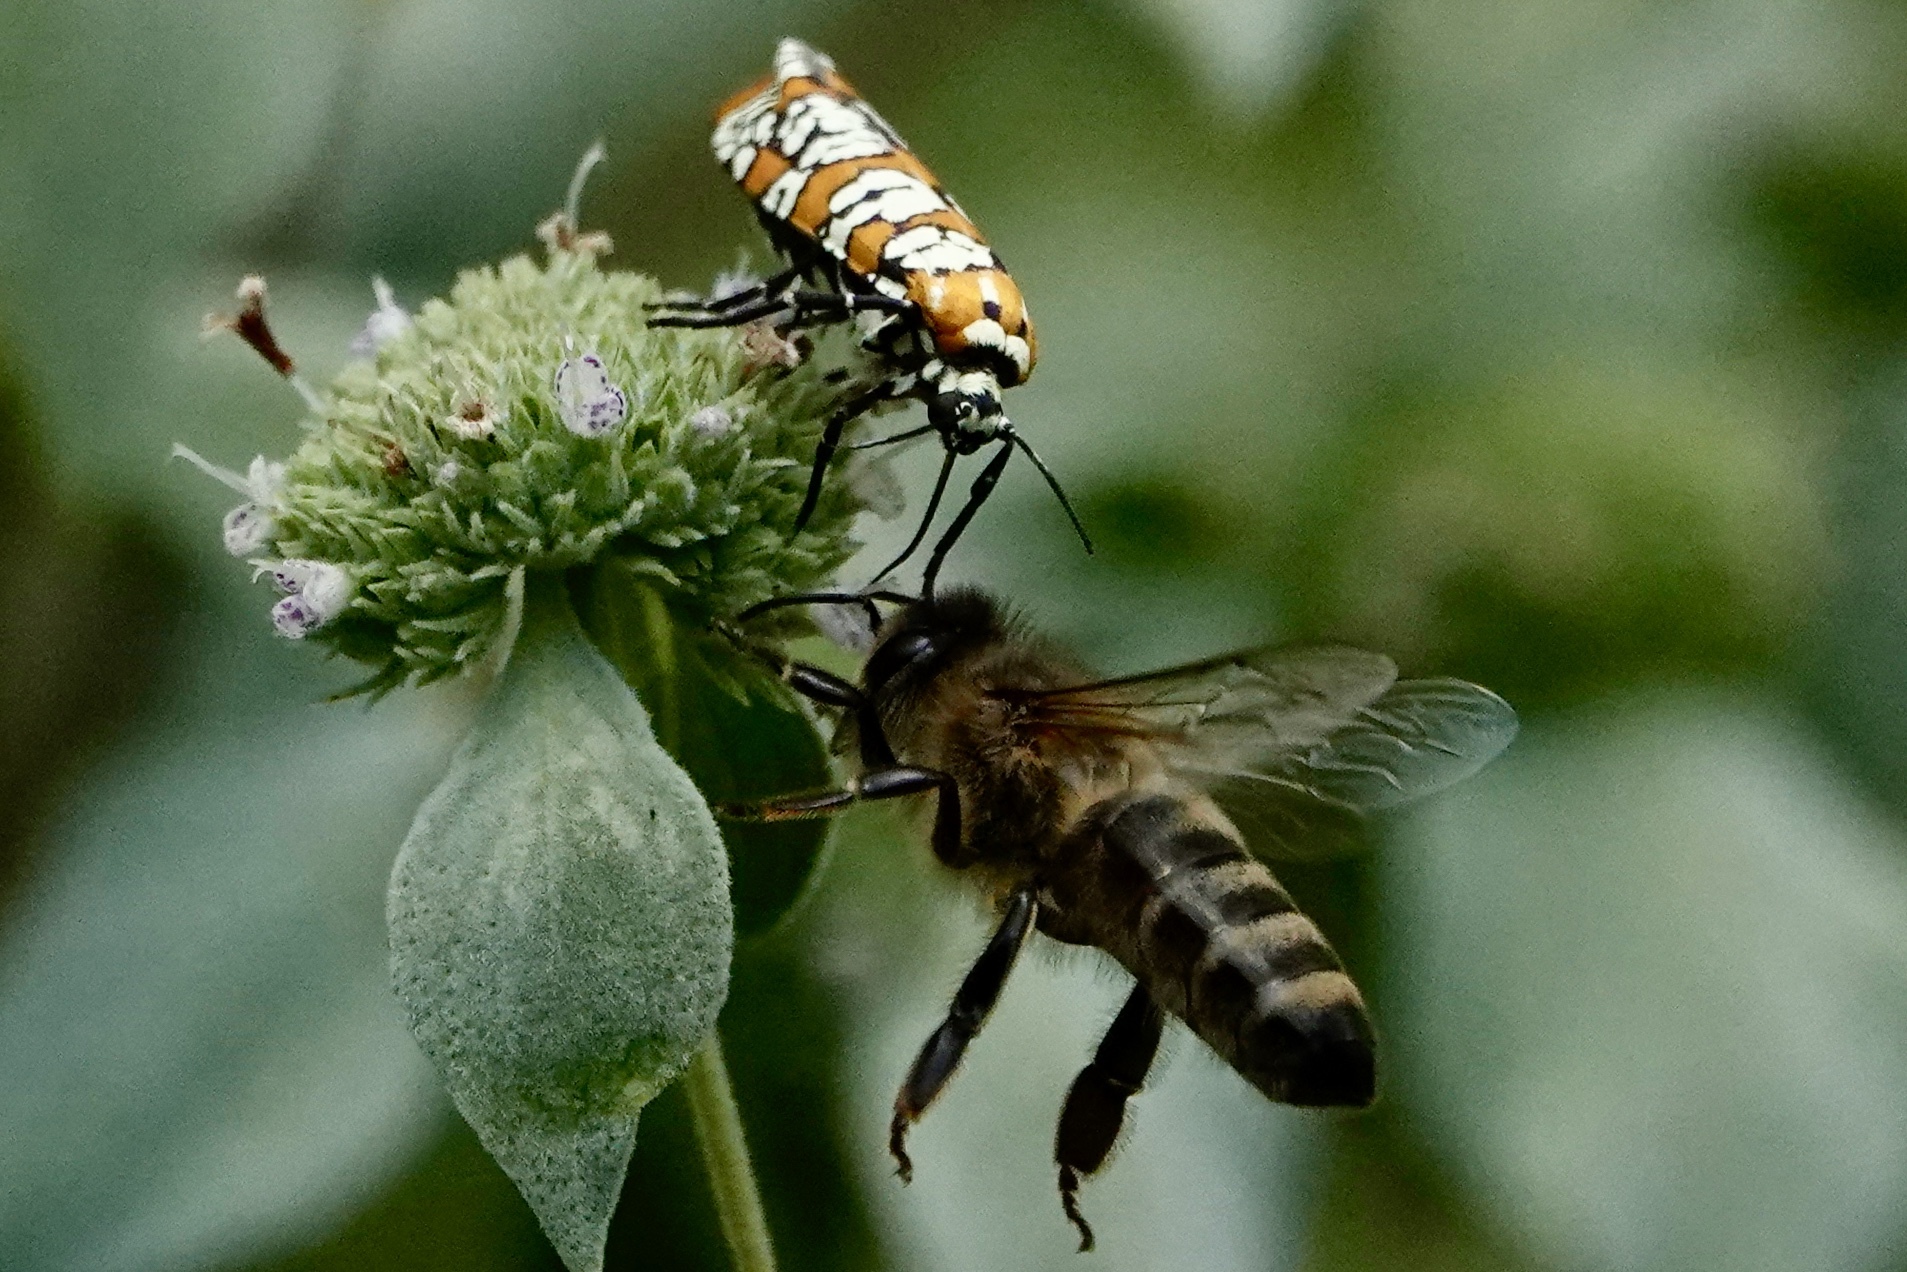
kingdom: Animalia
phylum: Arthropoda
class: Insecta
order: Lepidoptera
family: Attevidae
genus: Atteva
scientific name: Atteva punctella
